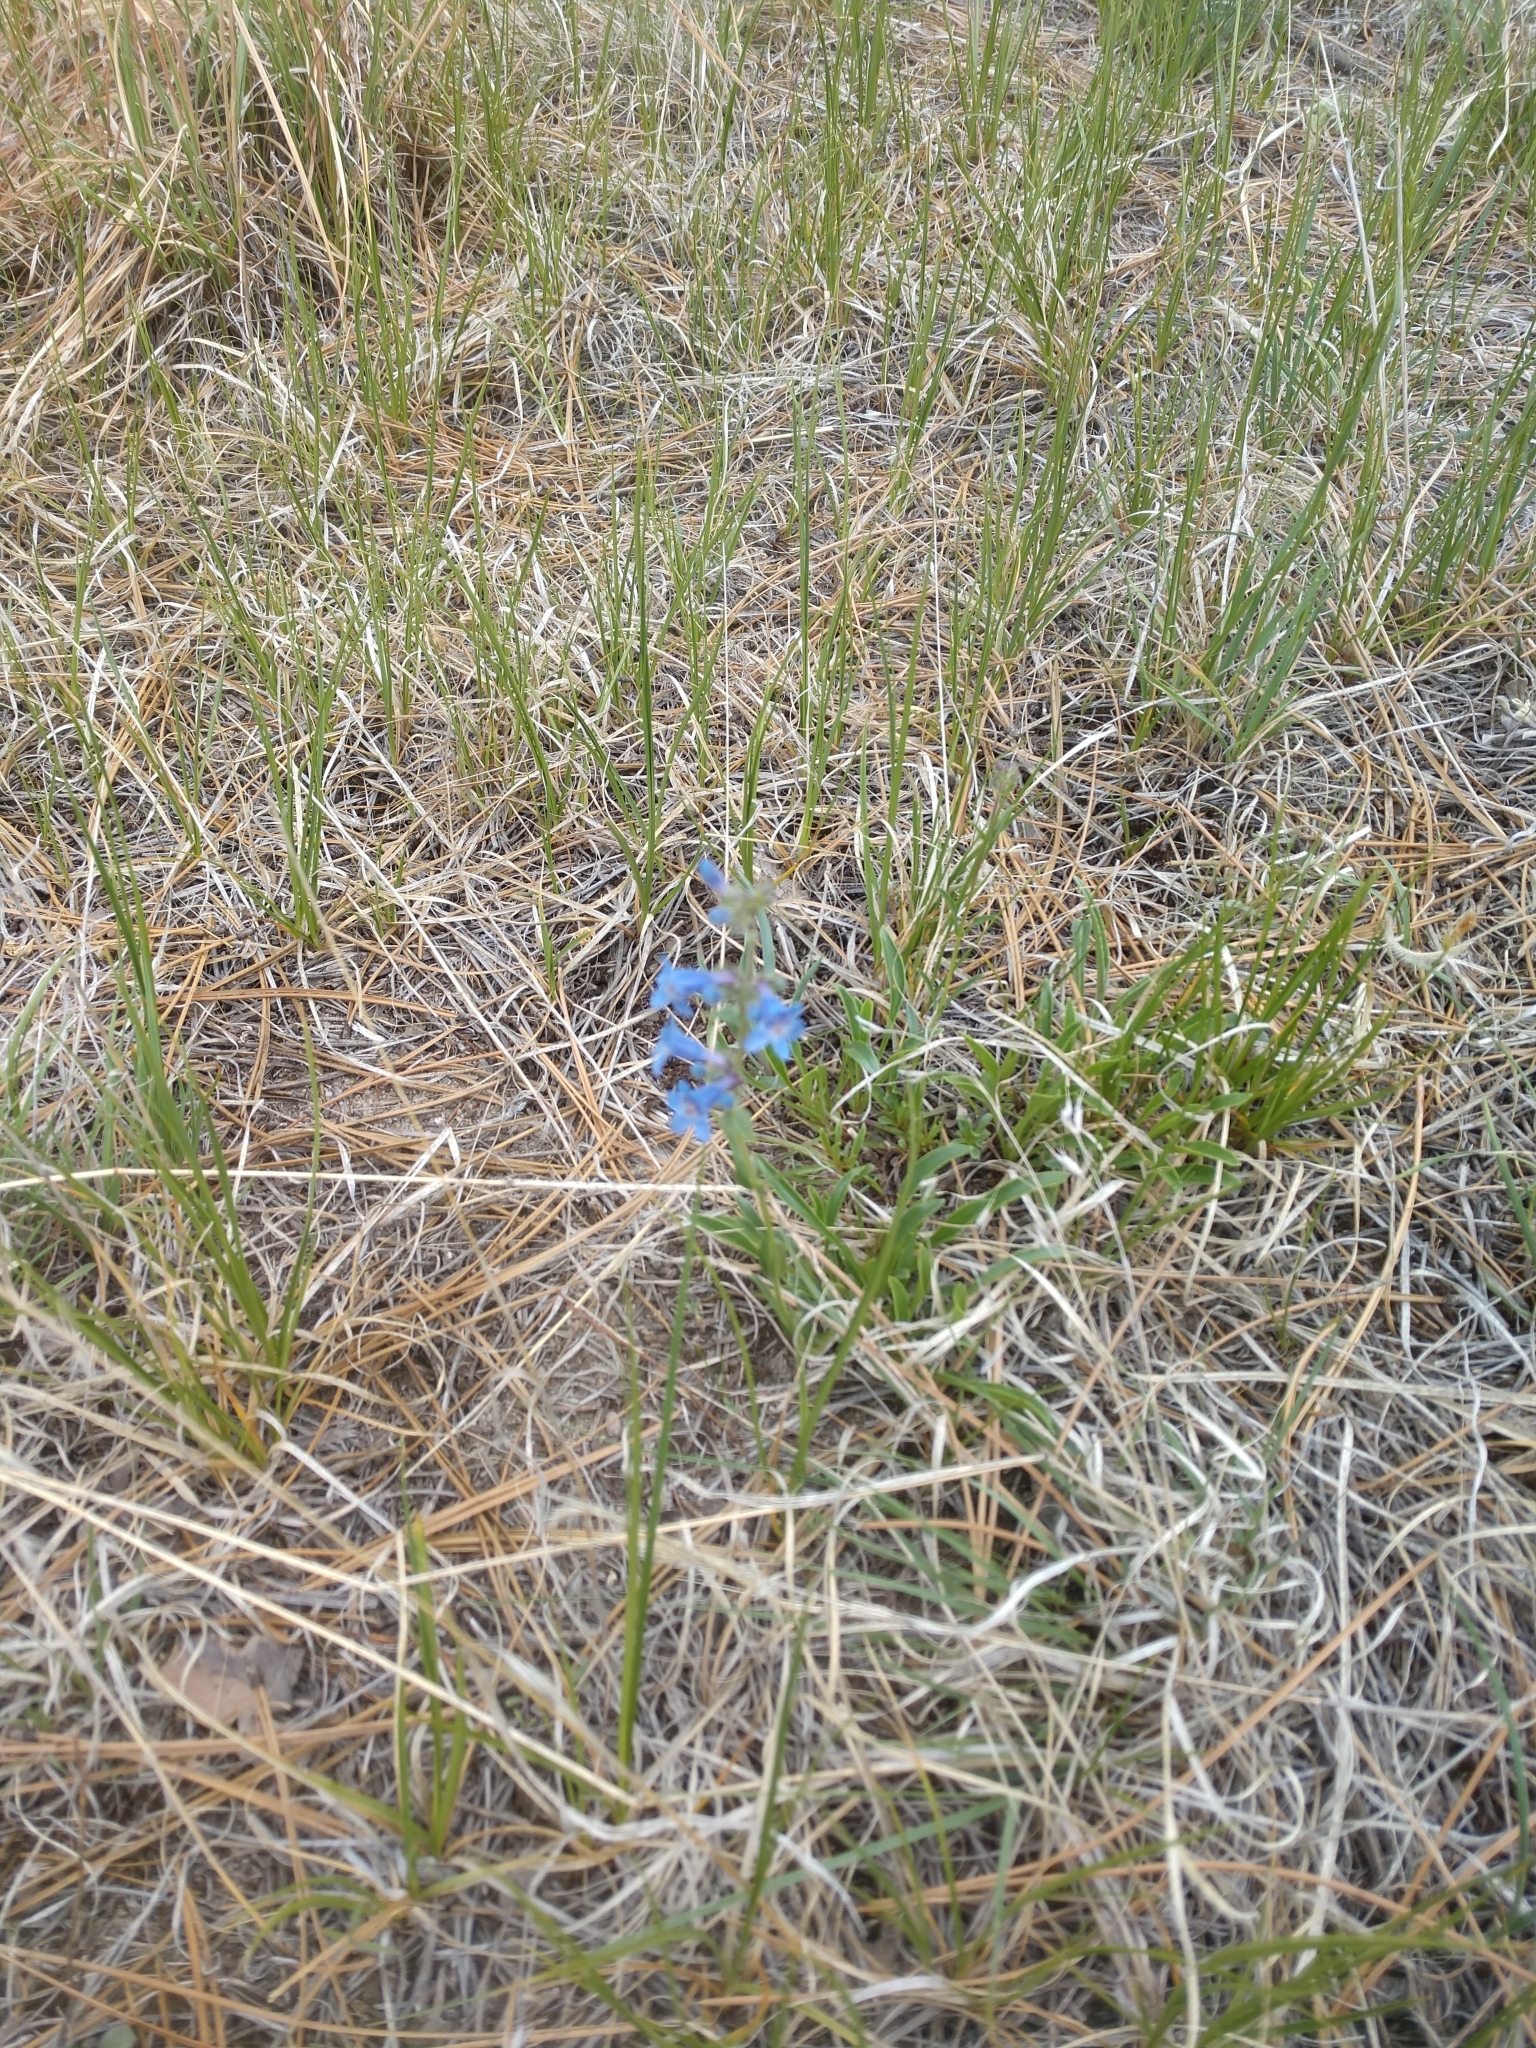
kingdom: Plantae
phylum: Tracheophyta
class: Magnoliopsida
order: Lamiales
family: Plantaginaceae
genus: Penstemon
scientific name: Penstemon virens
